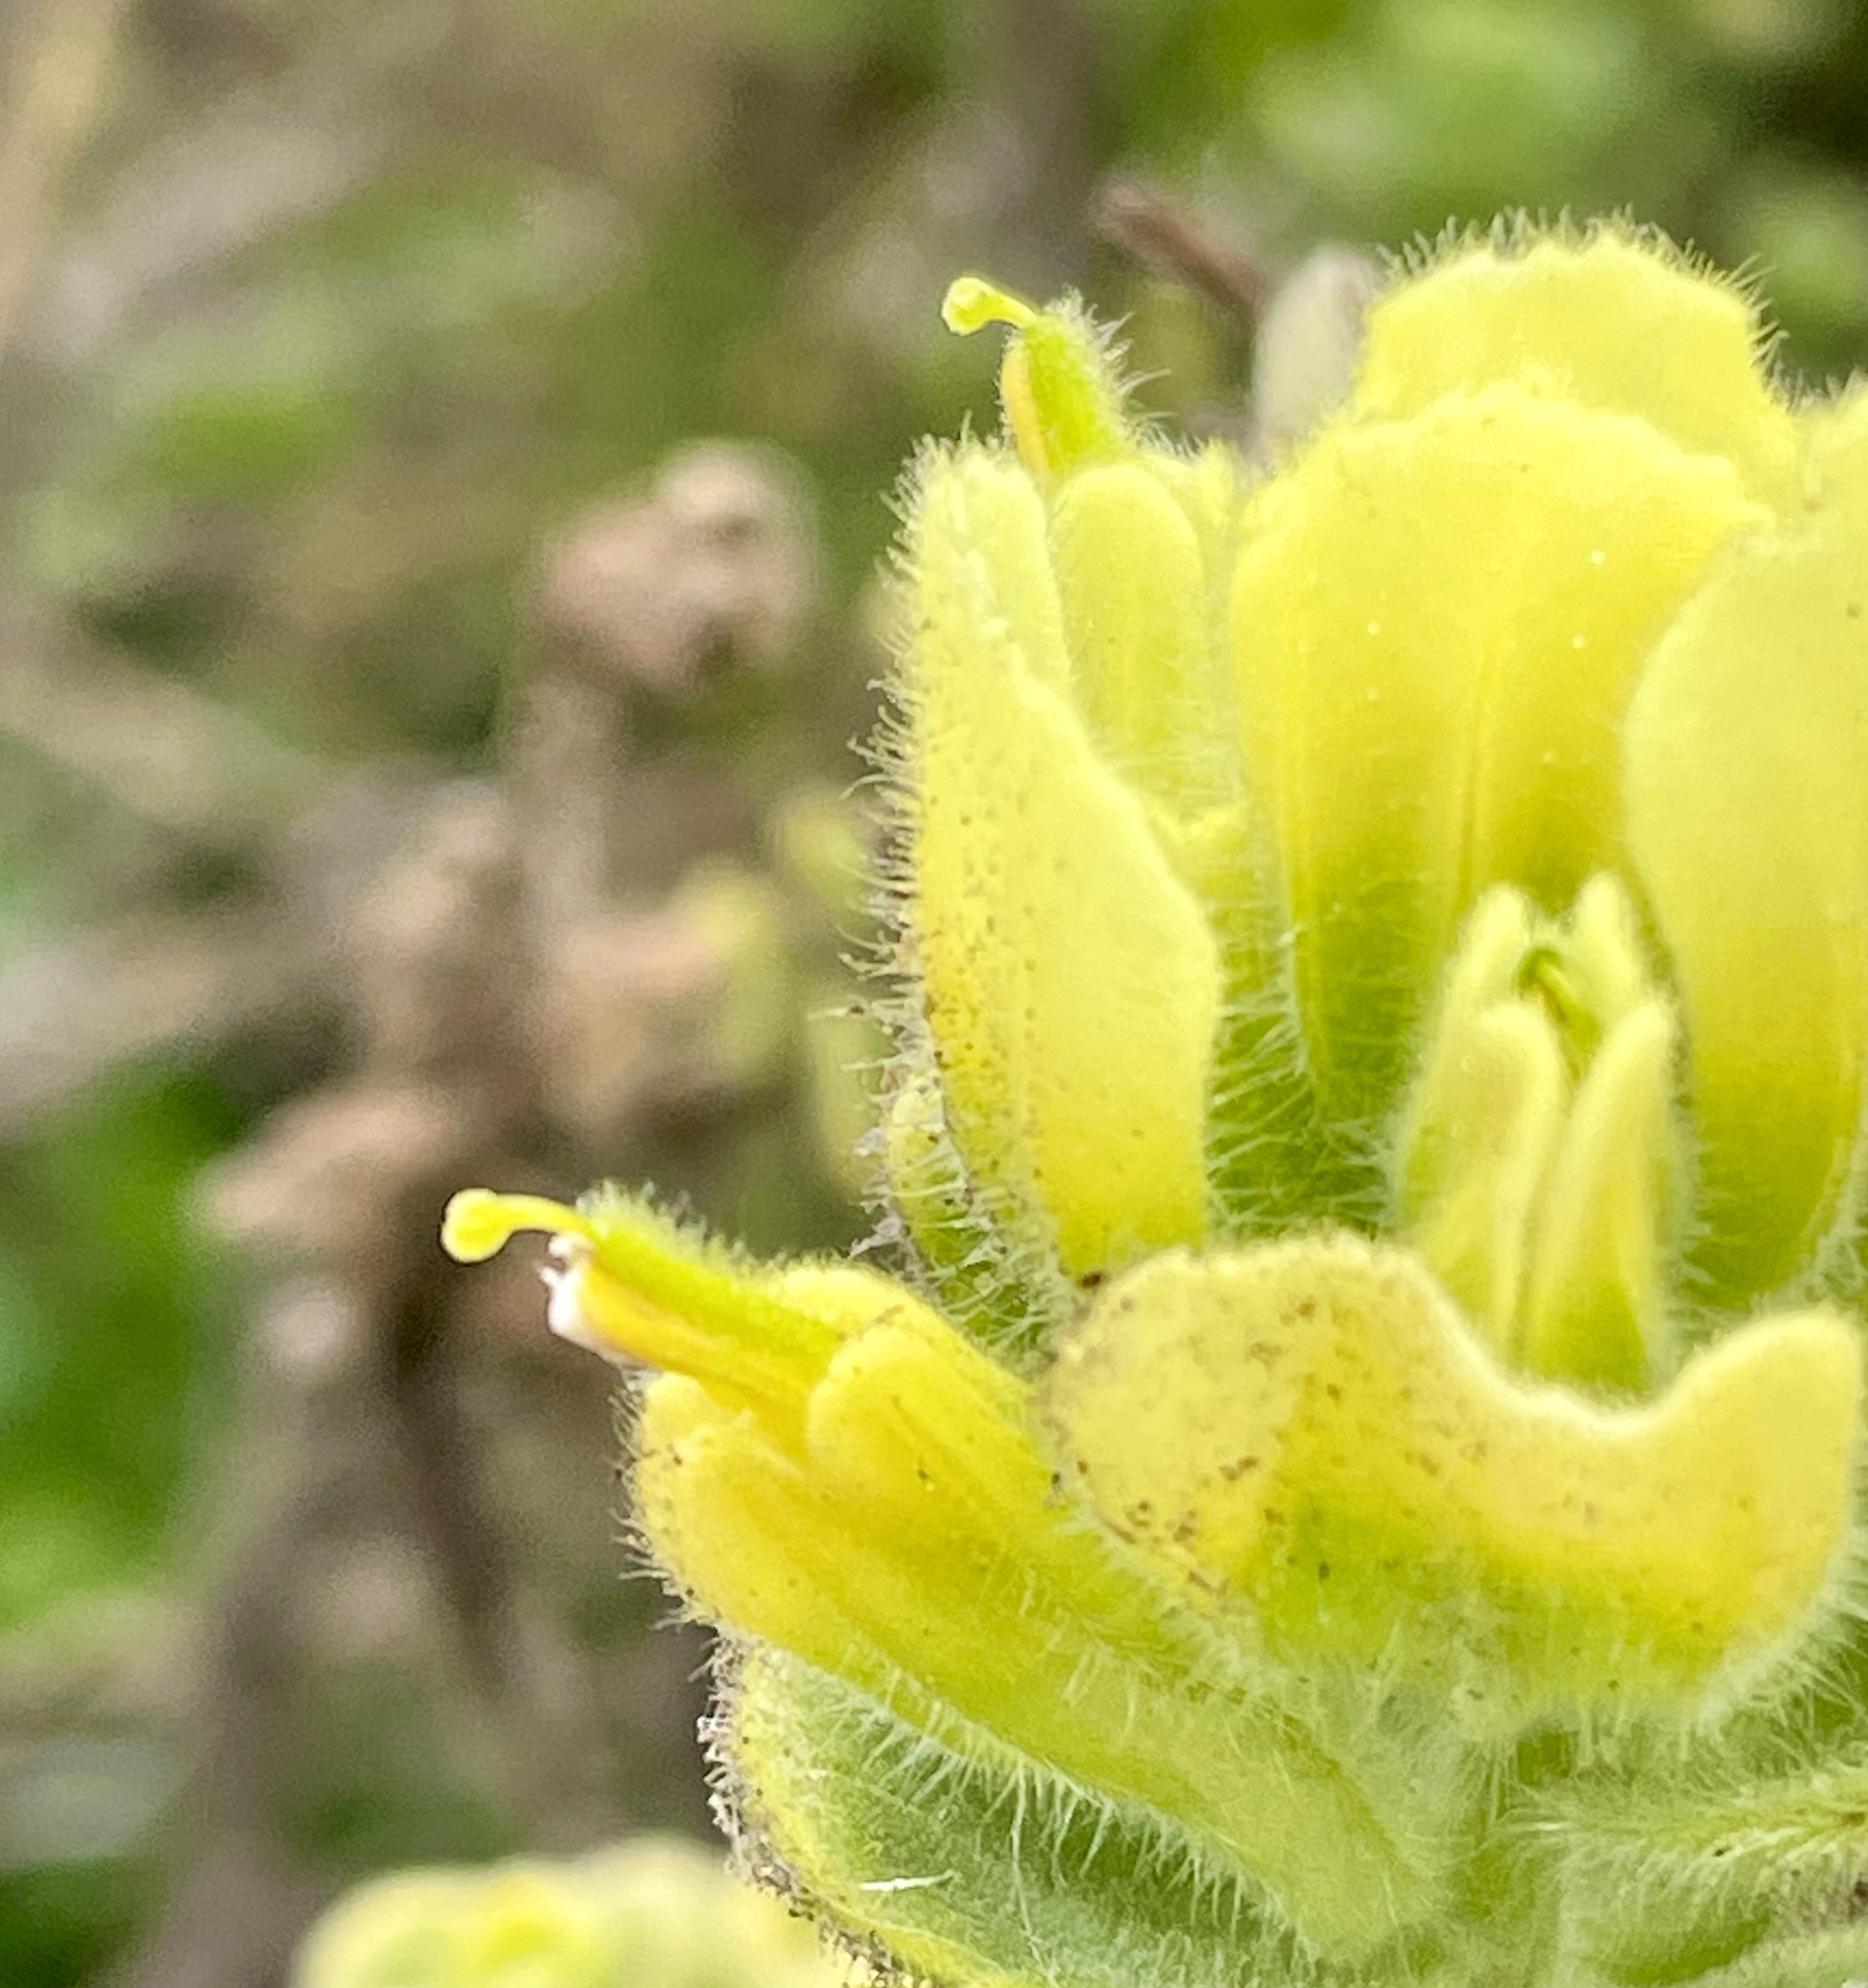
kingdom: Plantae
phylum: Tracheophyta
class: Magnoliopsida
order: Lamiales
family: Orobanchaceae
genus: Castilleja
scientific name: Castilleja latifolia
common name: Monterey indian paintbrush
